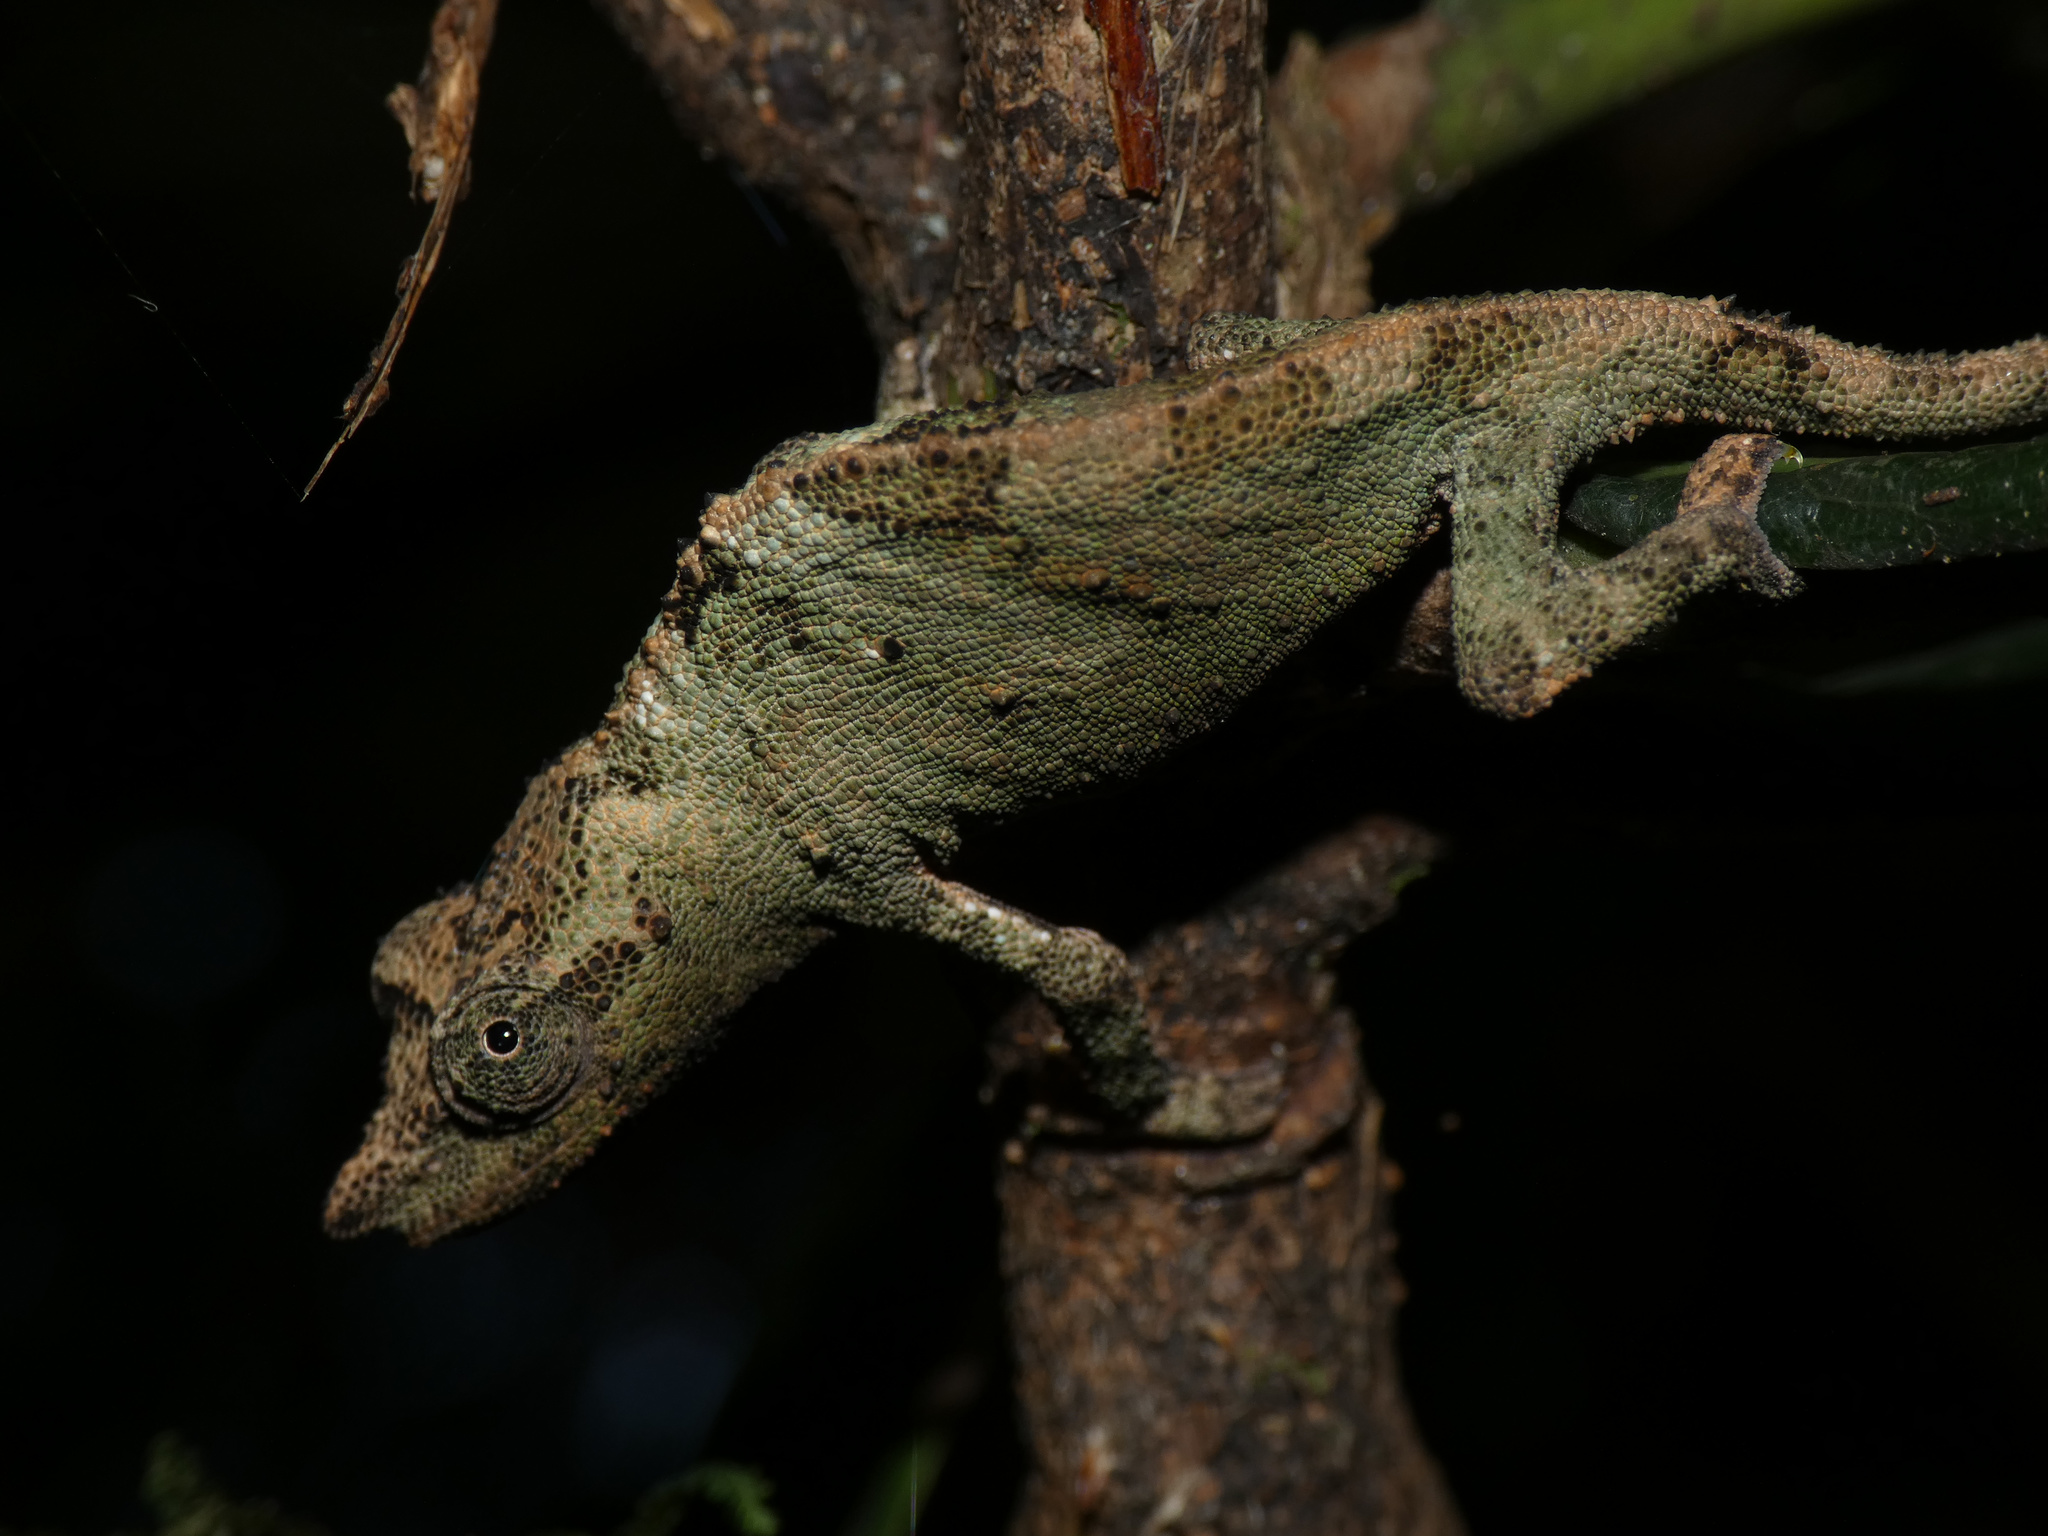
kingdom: Animalia
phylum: Chordata
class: Squamata
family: Chamaeleonidae
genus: Rhampholeon
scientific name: Rhampholeon marshalli
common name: Marshall's african leaf chameleon
